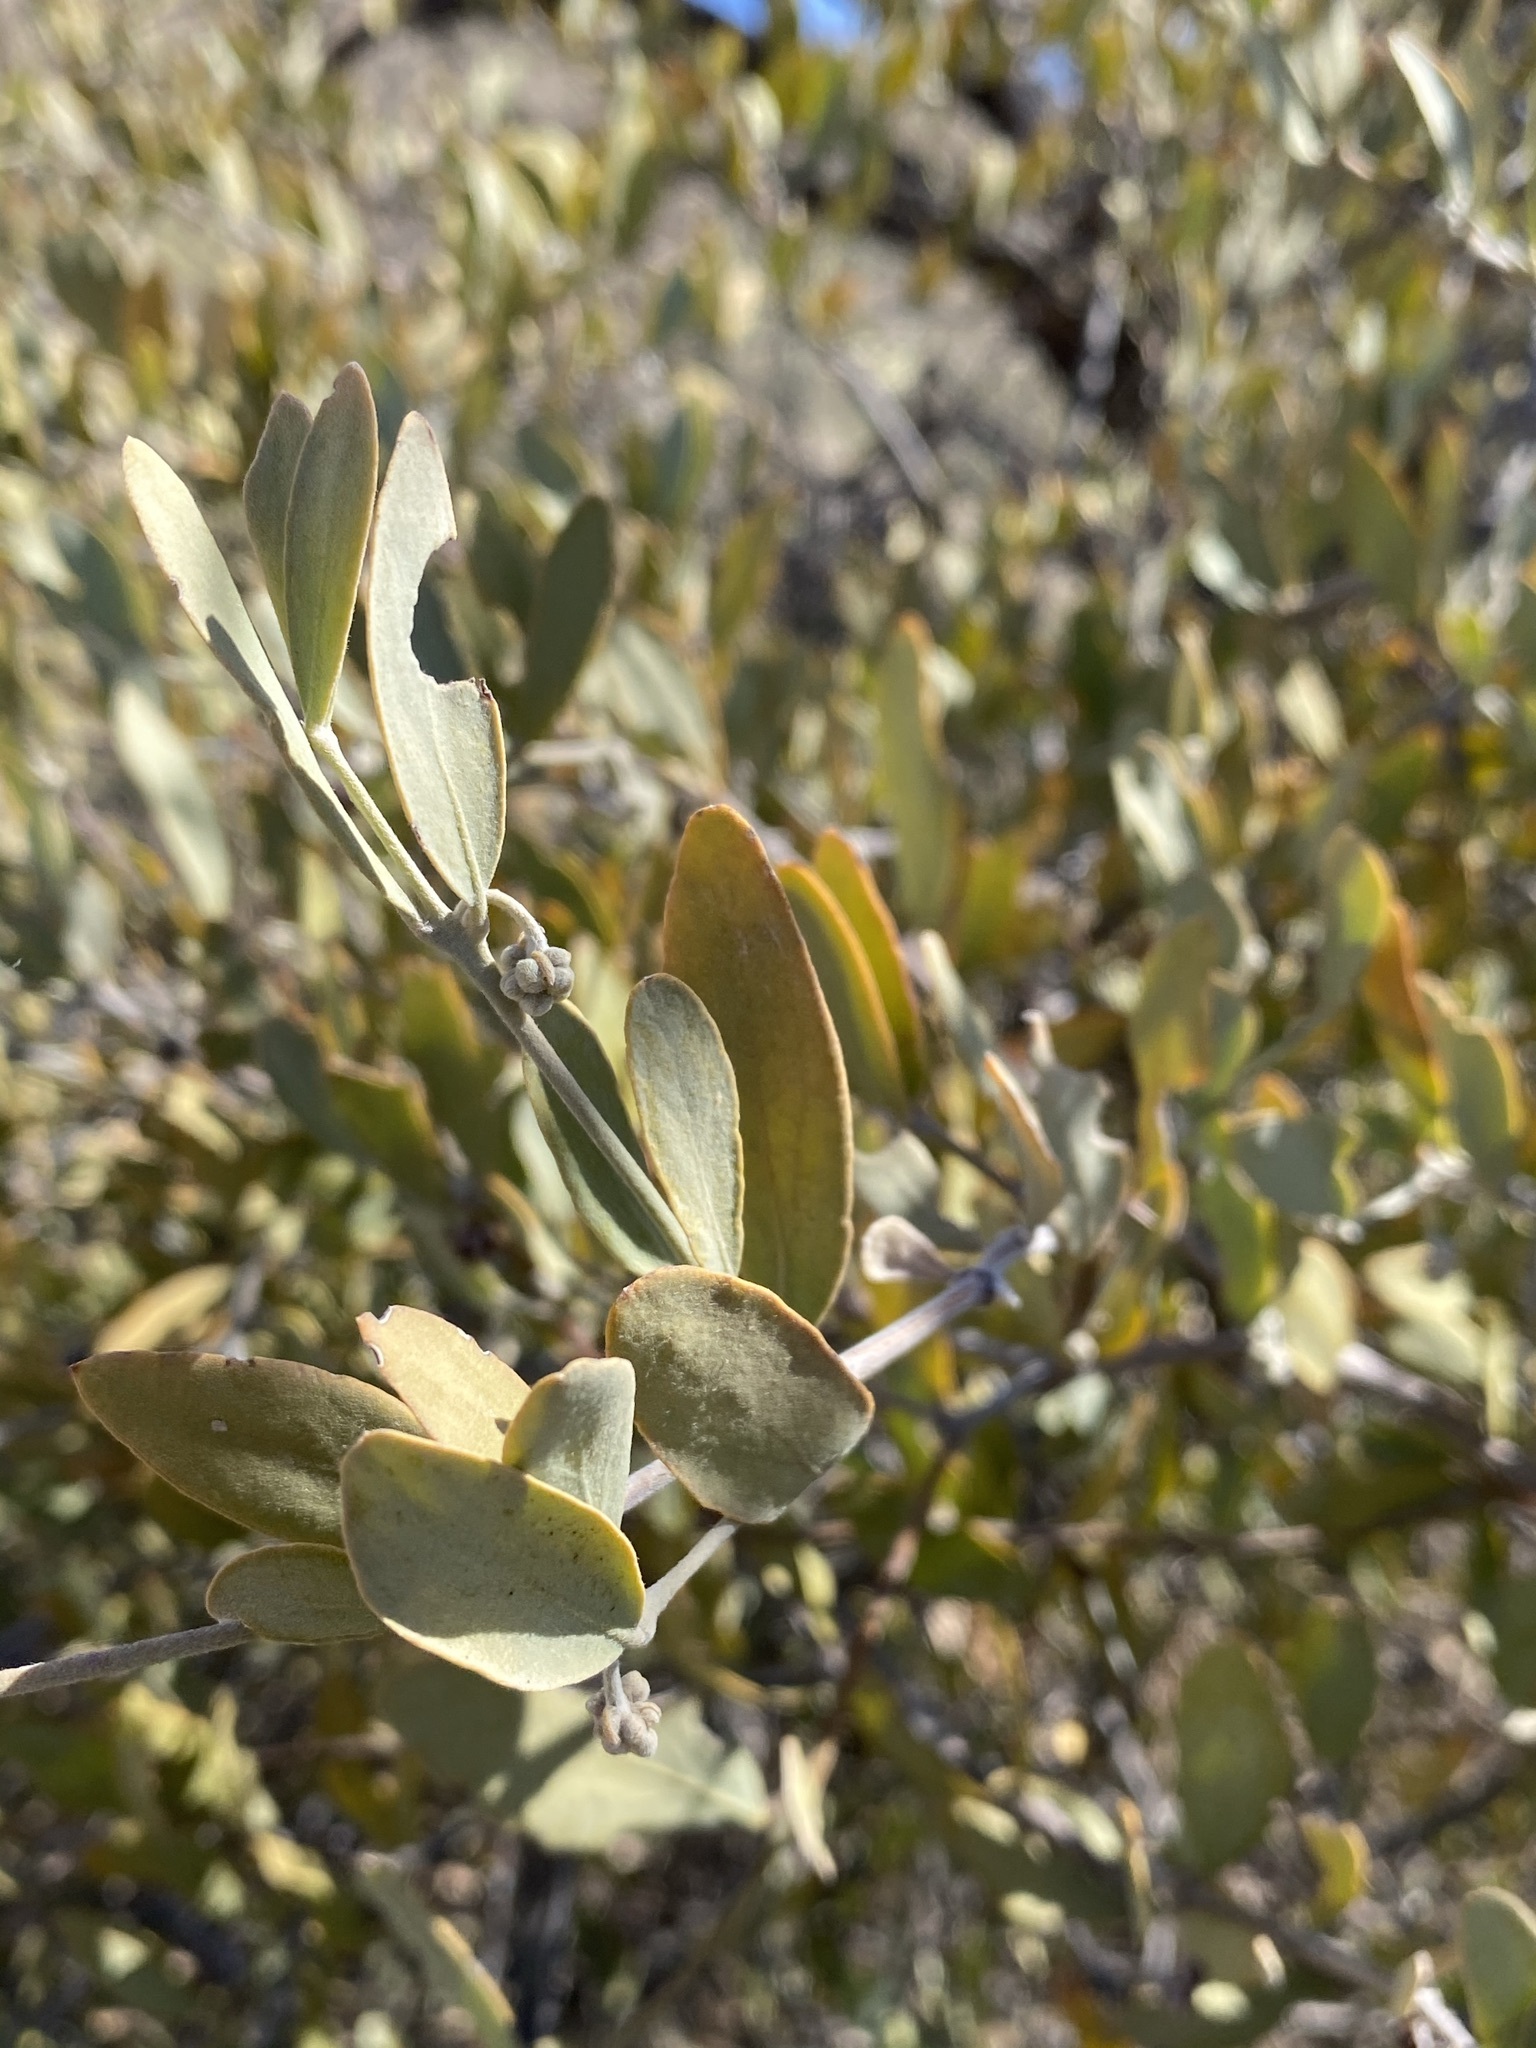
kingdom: Plantae
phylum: Tracheophyta
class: Magnoliopsida
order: Caryophyllales
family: Simmondsiaceae
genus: Simmondsia
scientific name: Simmondsia chinensis
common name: Jojoba
